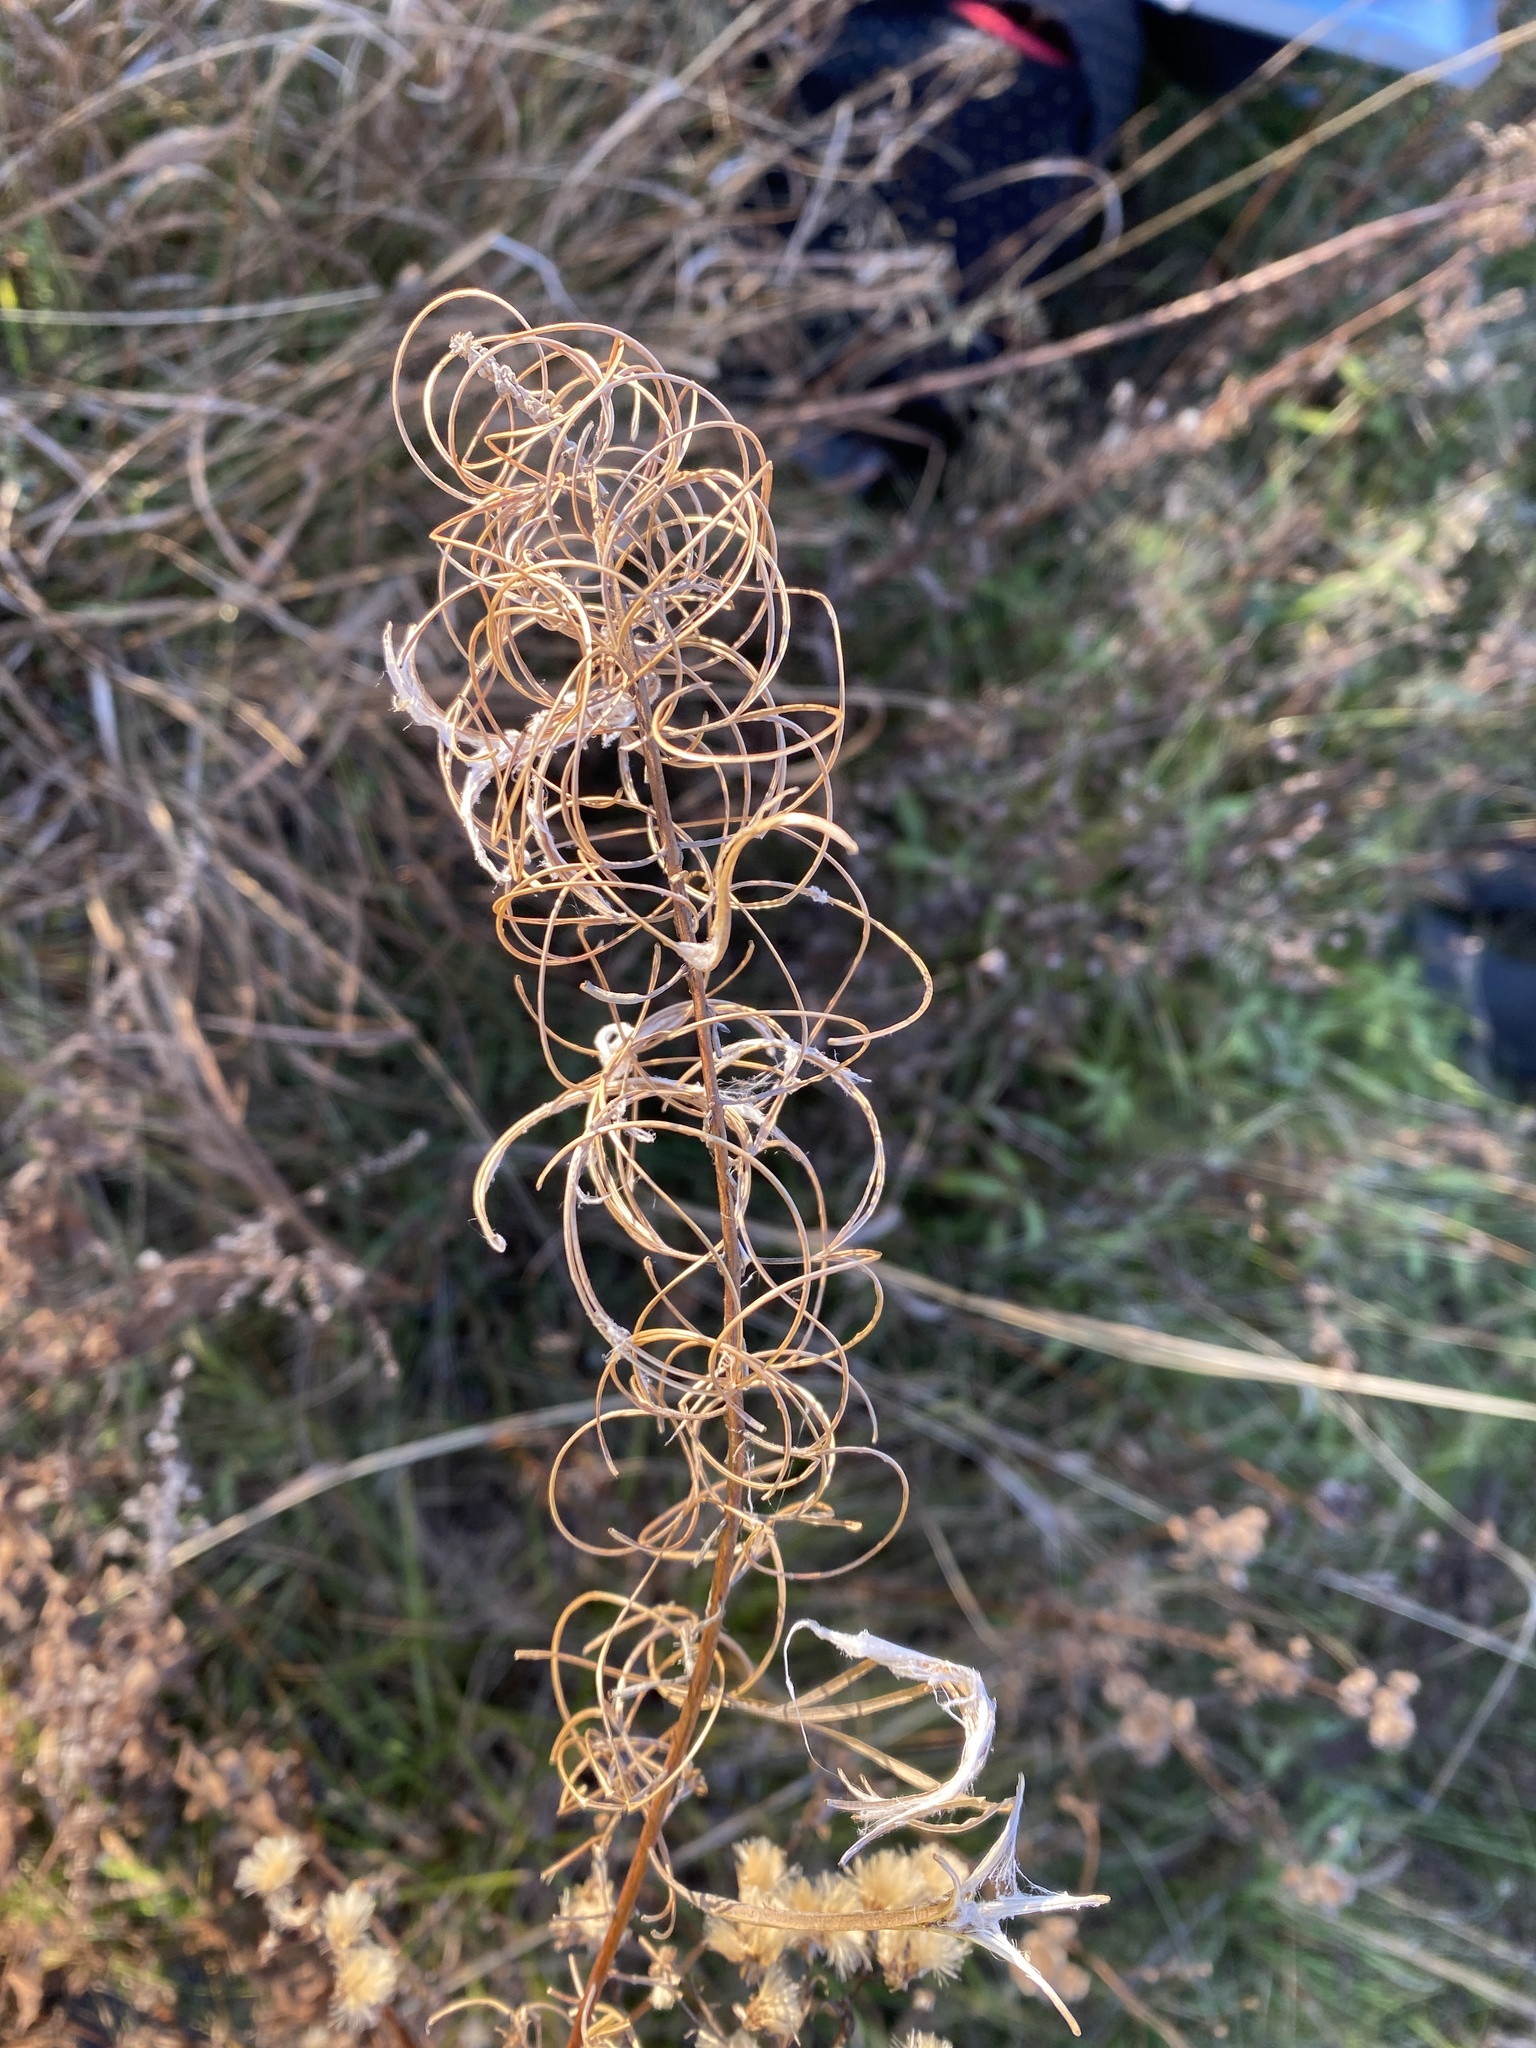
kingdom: Plantae
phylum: Tracheophyta
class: Magnoliopsida
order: Myrtales
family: Onagraceae
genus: Chamaenerion
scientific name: Chamaenerion angustifolium
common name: Fireweed
